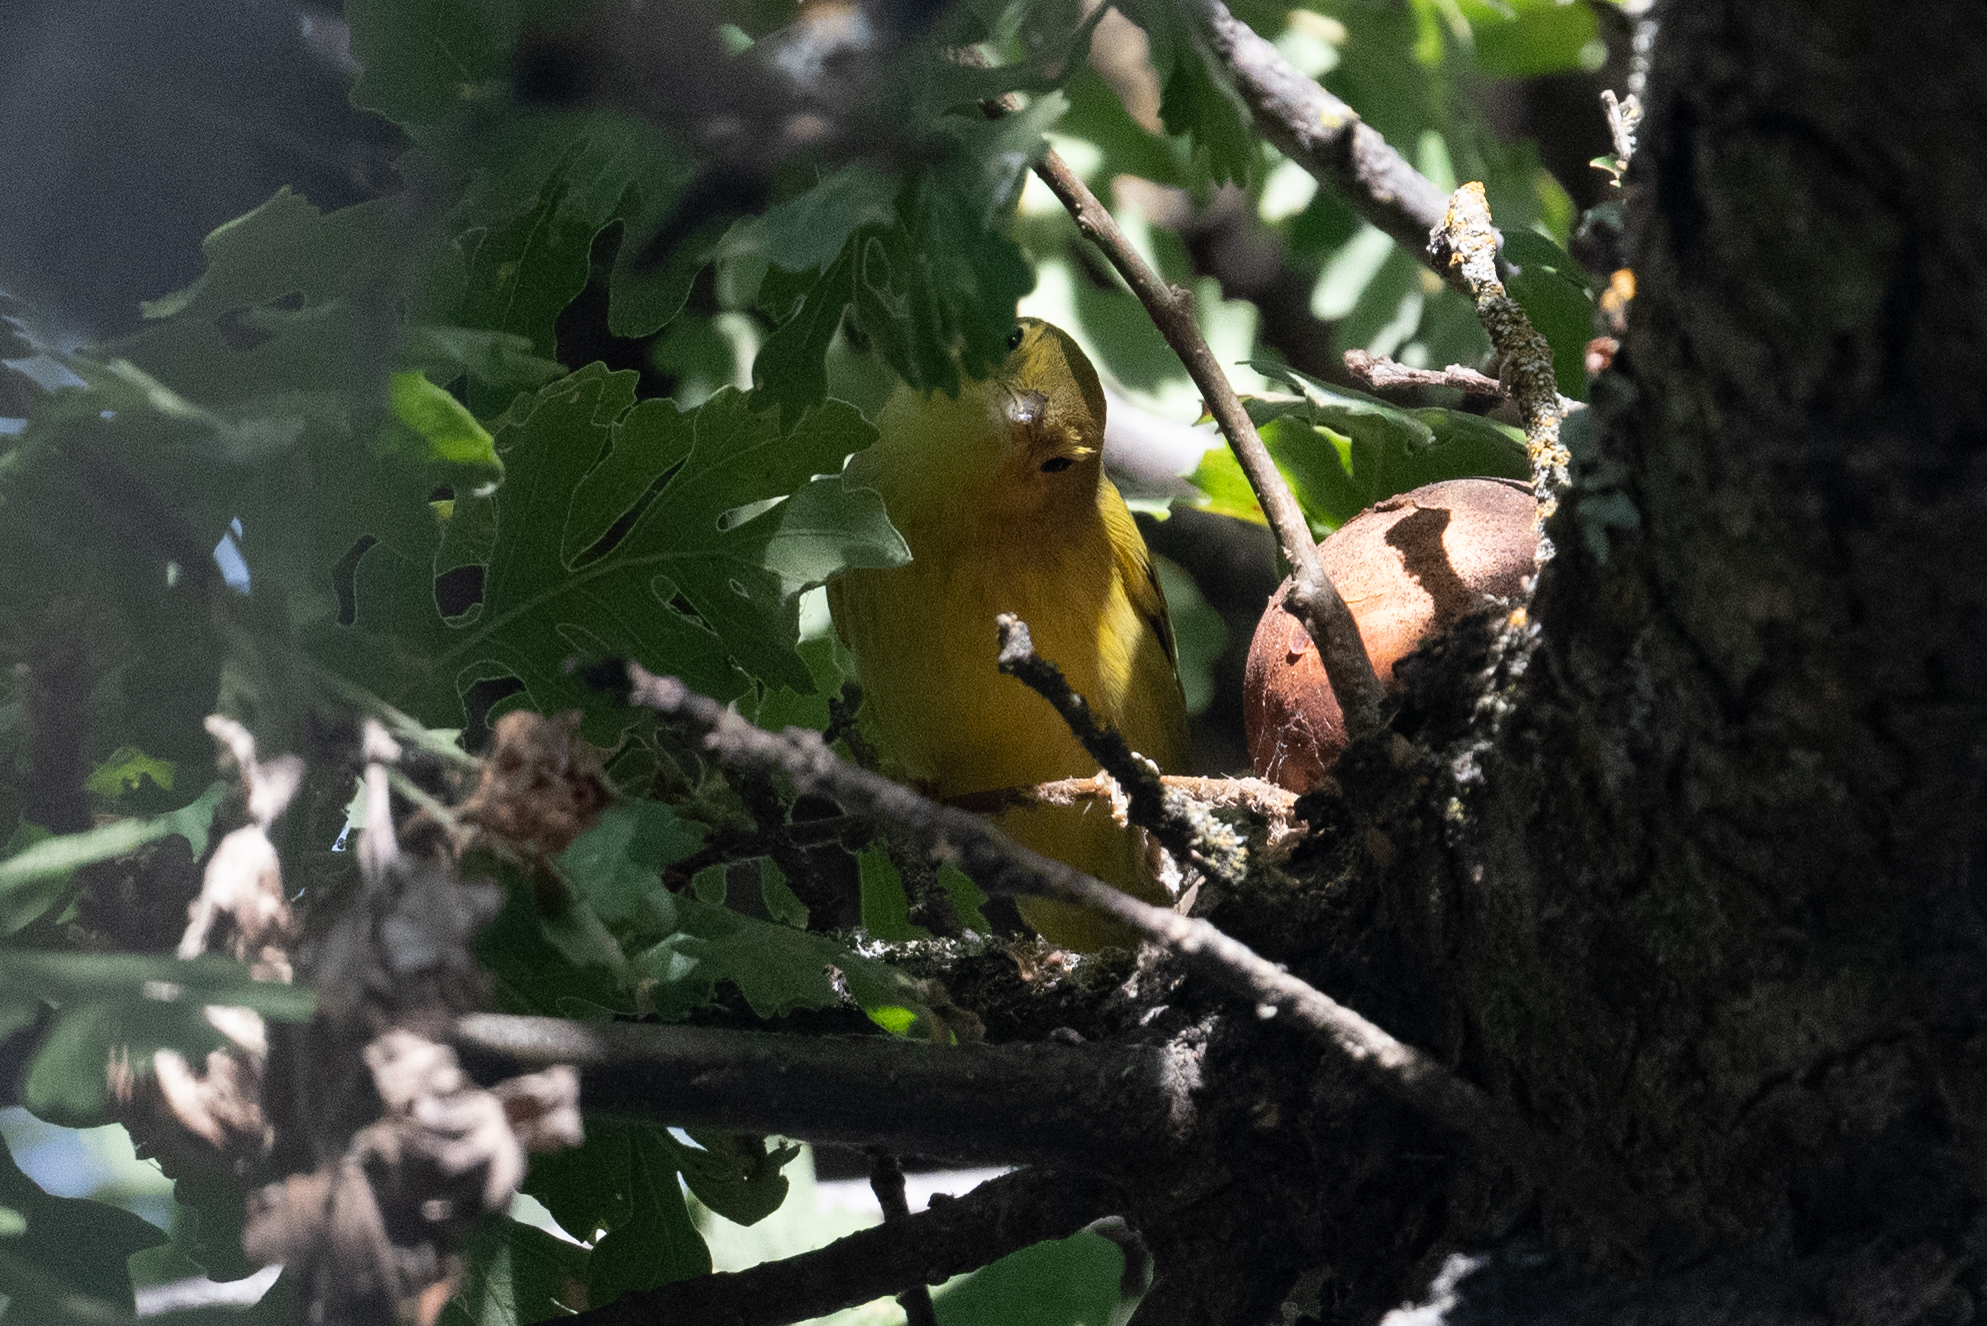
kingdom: Animalia
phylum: Chordata
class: Aves
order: Passeriformes
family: Parulidae
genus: Setophaga
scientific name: Setophaga petechia
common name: Yellow warbler
